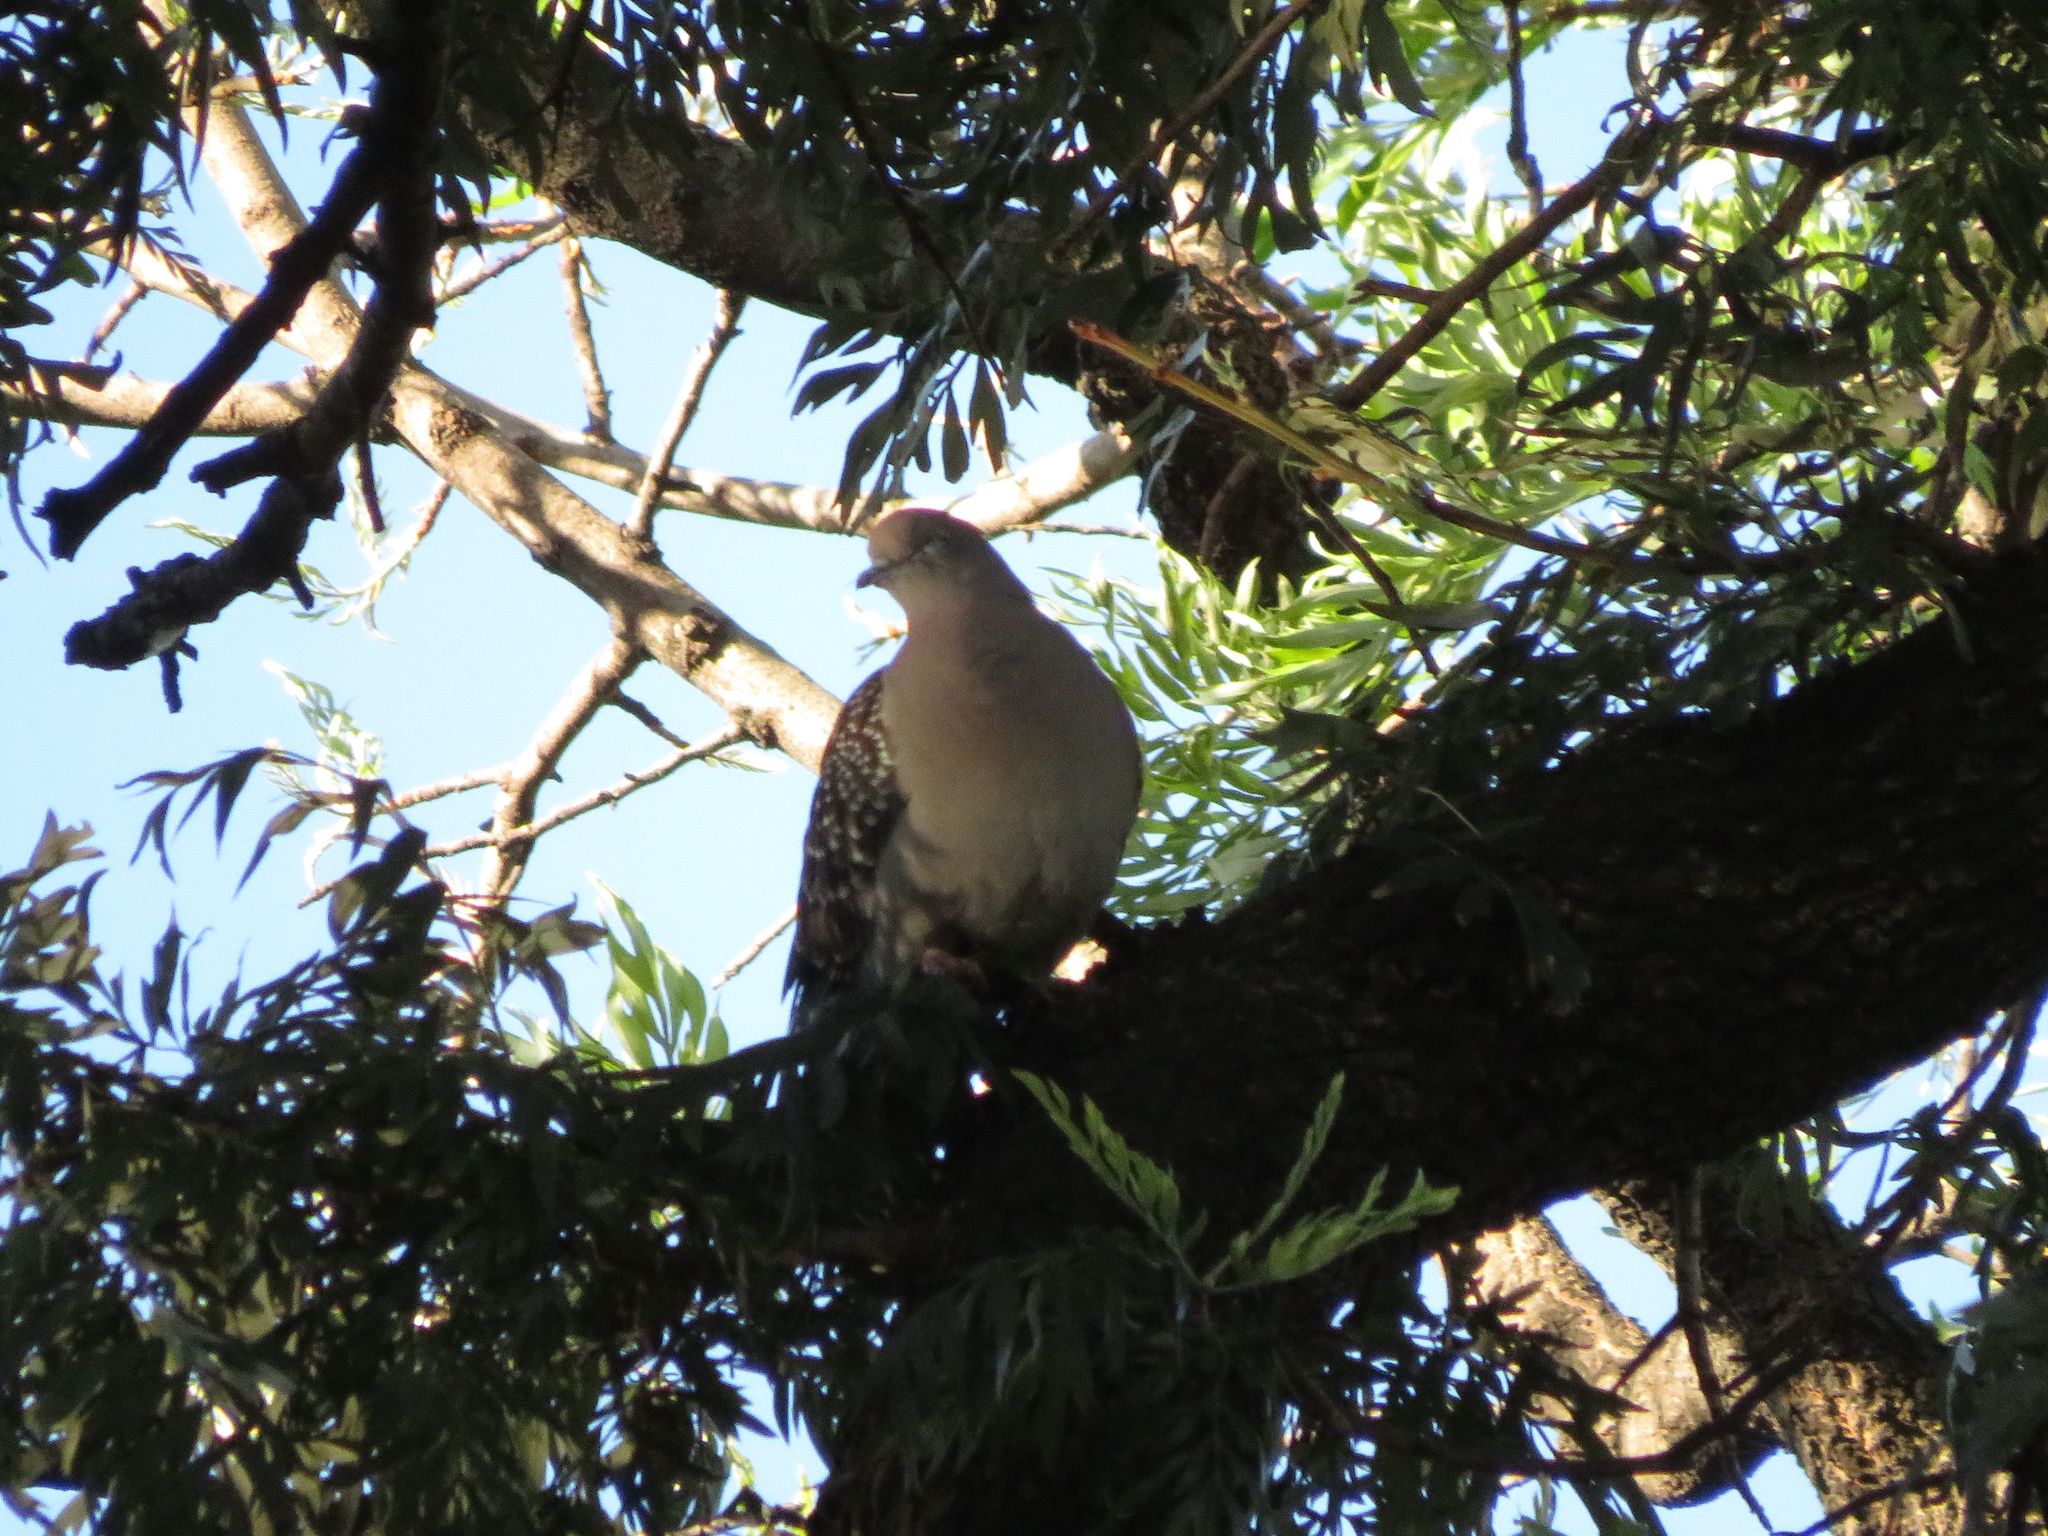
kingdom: Animalia
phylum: Chordata
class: Aves
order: Columbiformes
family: Columbidae
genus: Patagioenas
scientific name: Patagioenas maculosa
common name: Spot-winged pigeon
